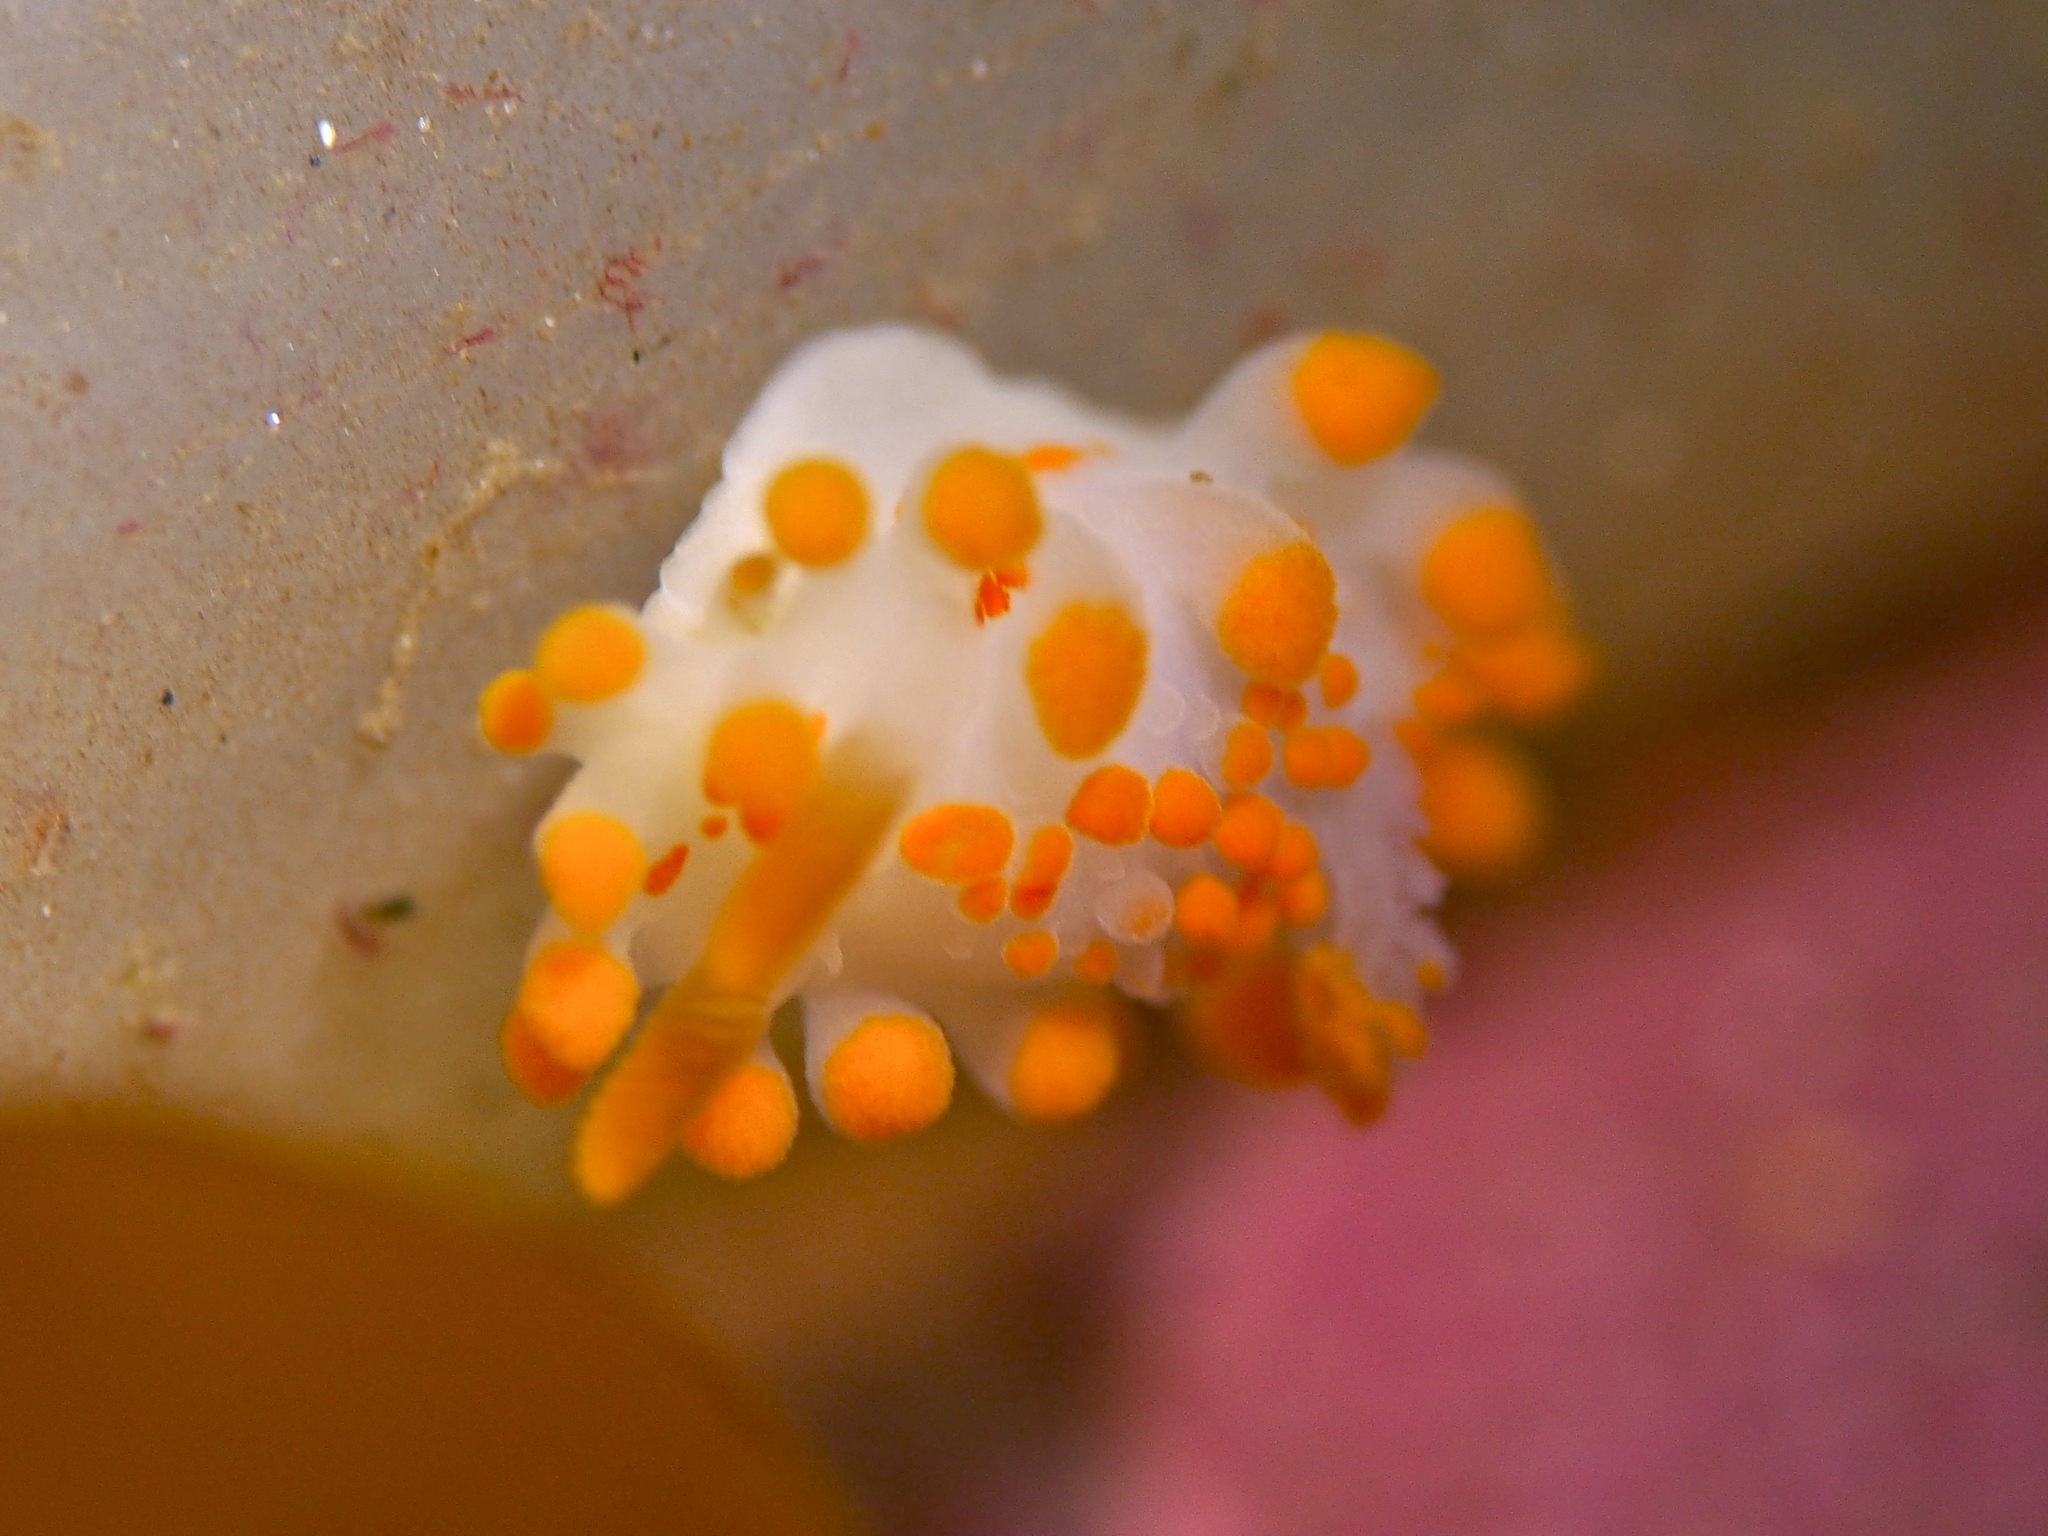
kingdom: Animalia
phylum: Mollusca
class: Gastropoda
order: Nudibranchia
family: Polyceridae
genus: Limacia
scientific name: Limacia clavigera
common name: Orange-clubbed sea slug
